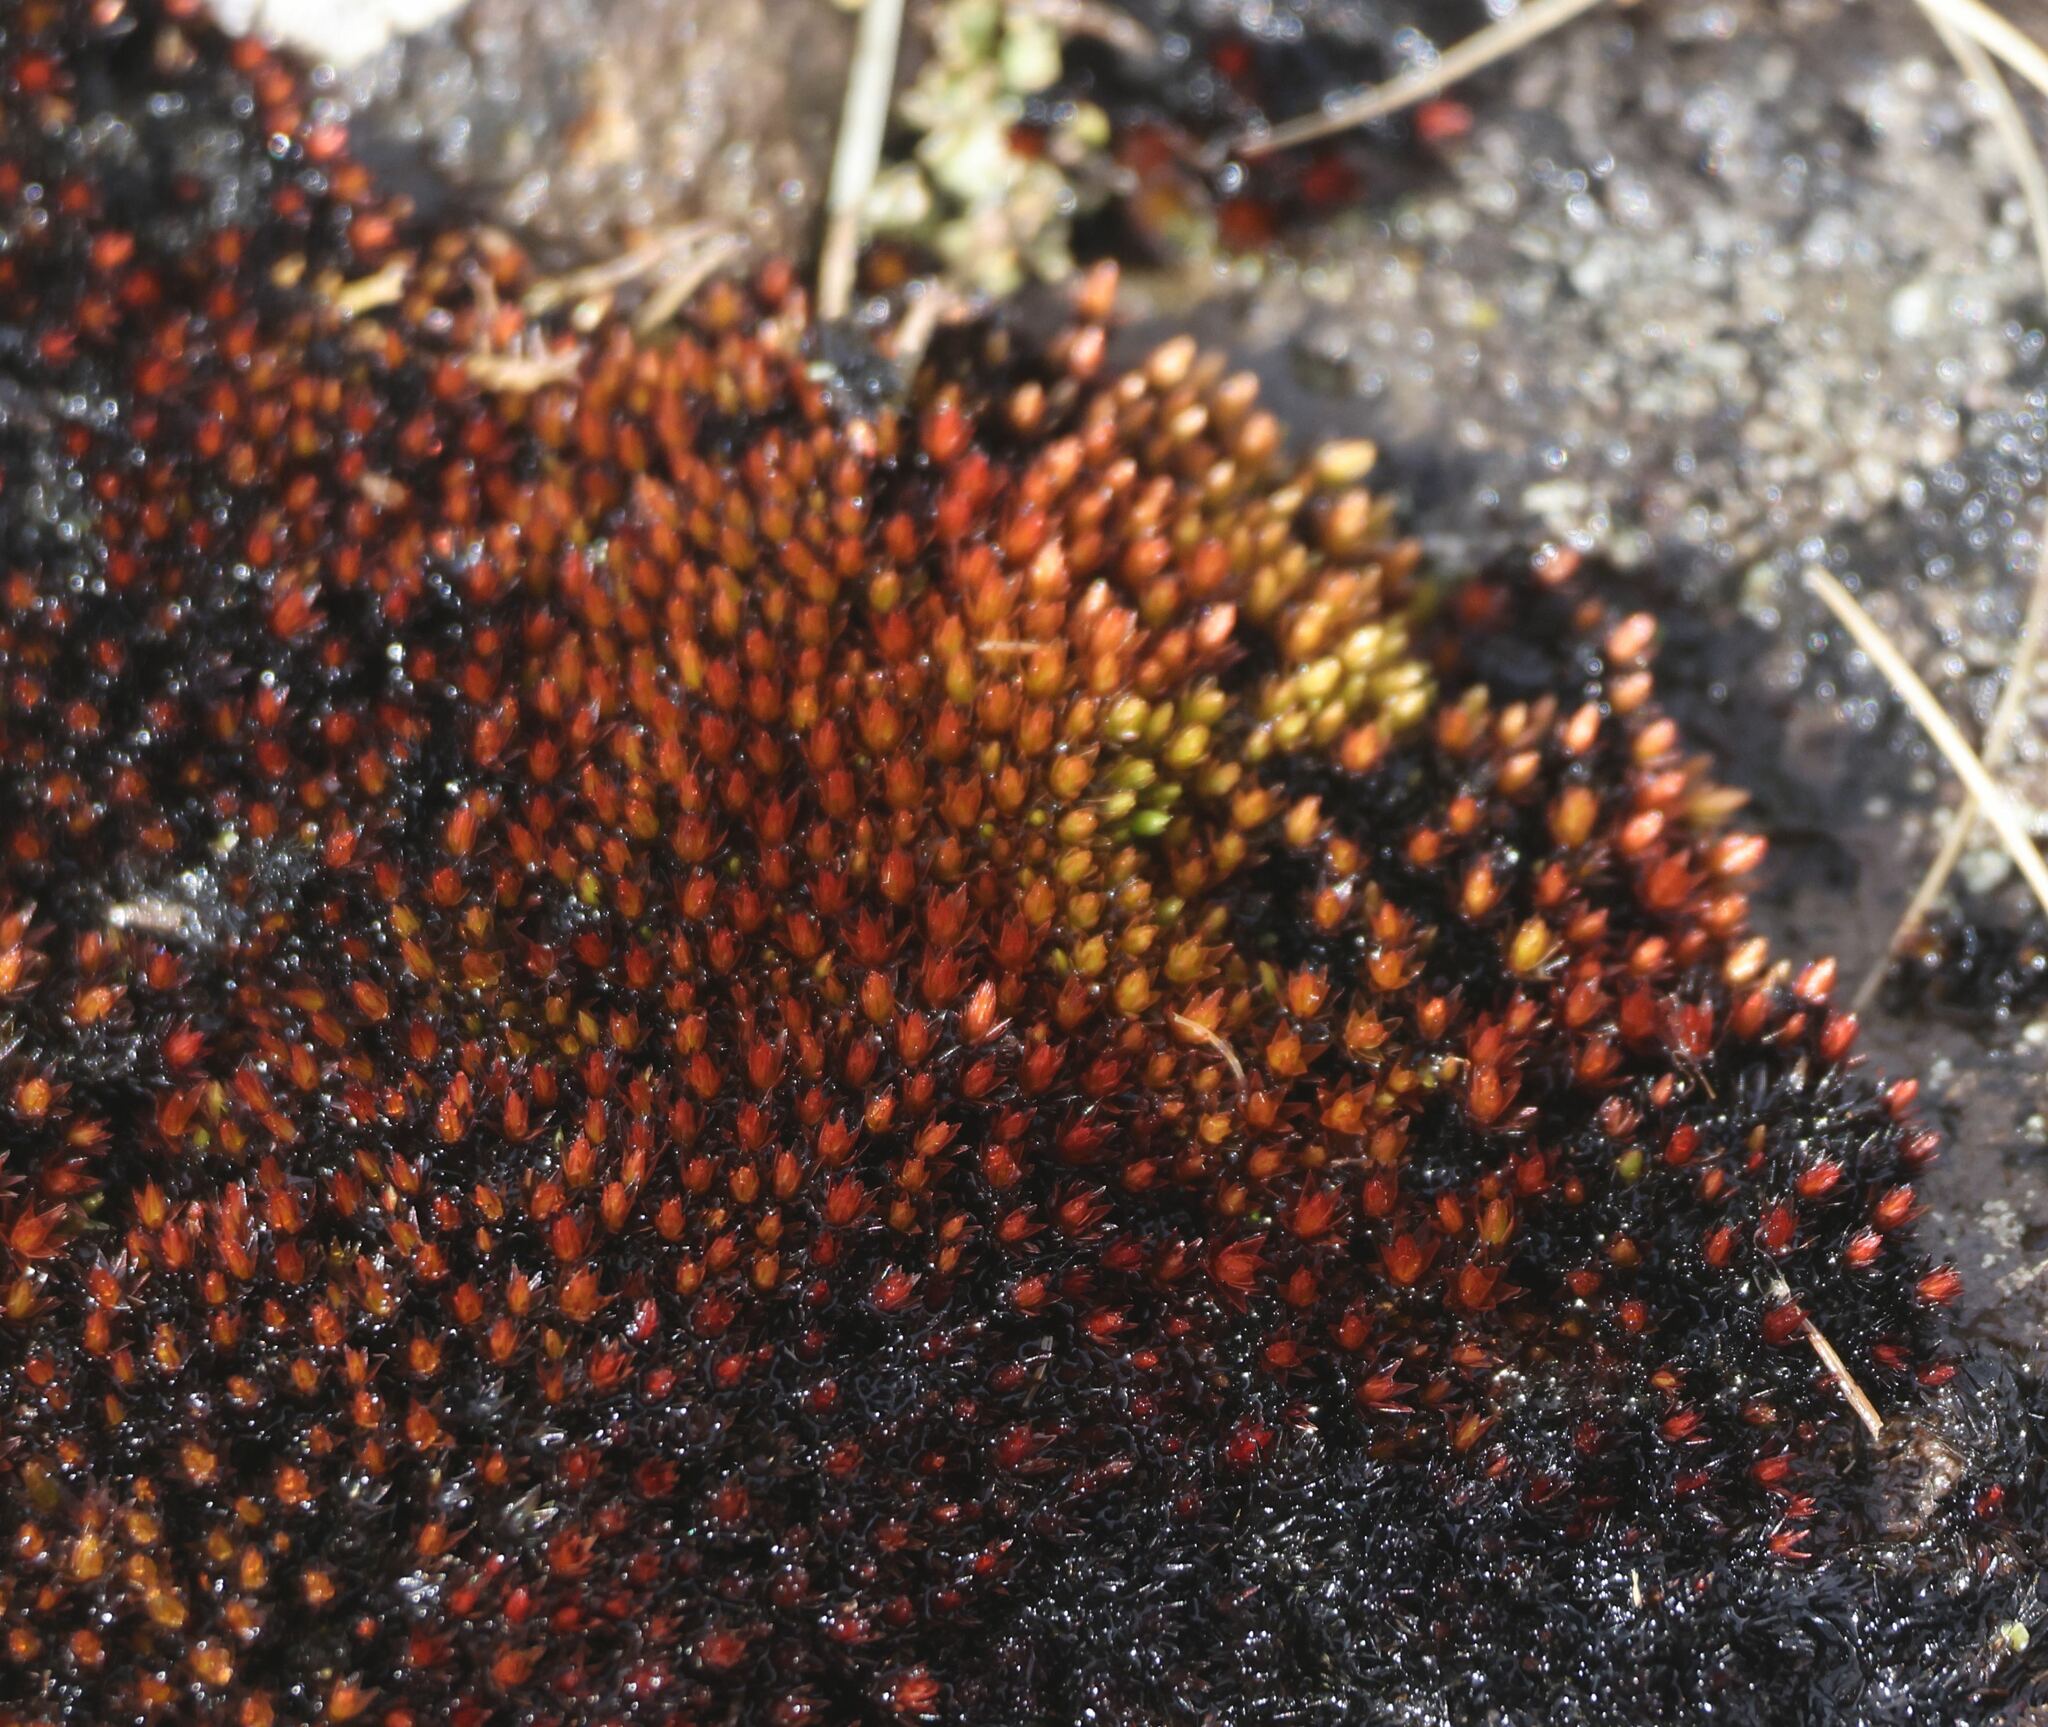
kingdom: Plantae
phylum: Bryophyta
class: Bryopsida
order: Bryales
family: Bryaceae
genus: Imbribryum
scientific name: Imbribryum alpinum
